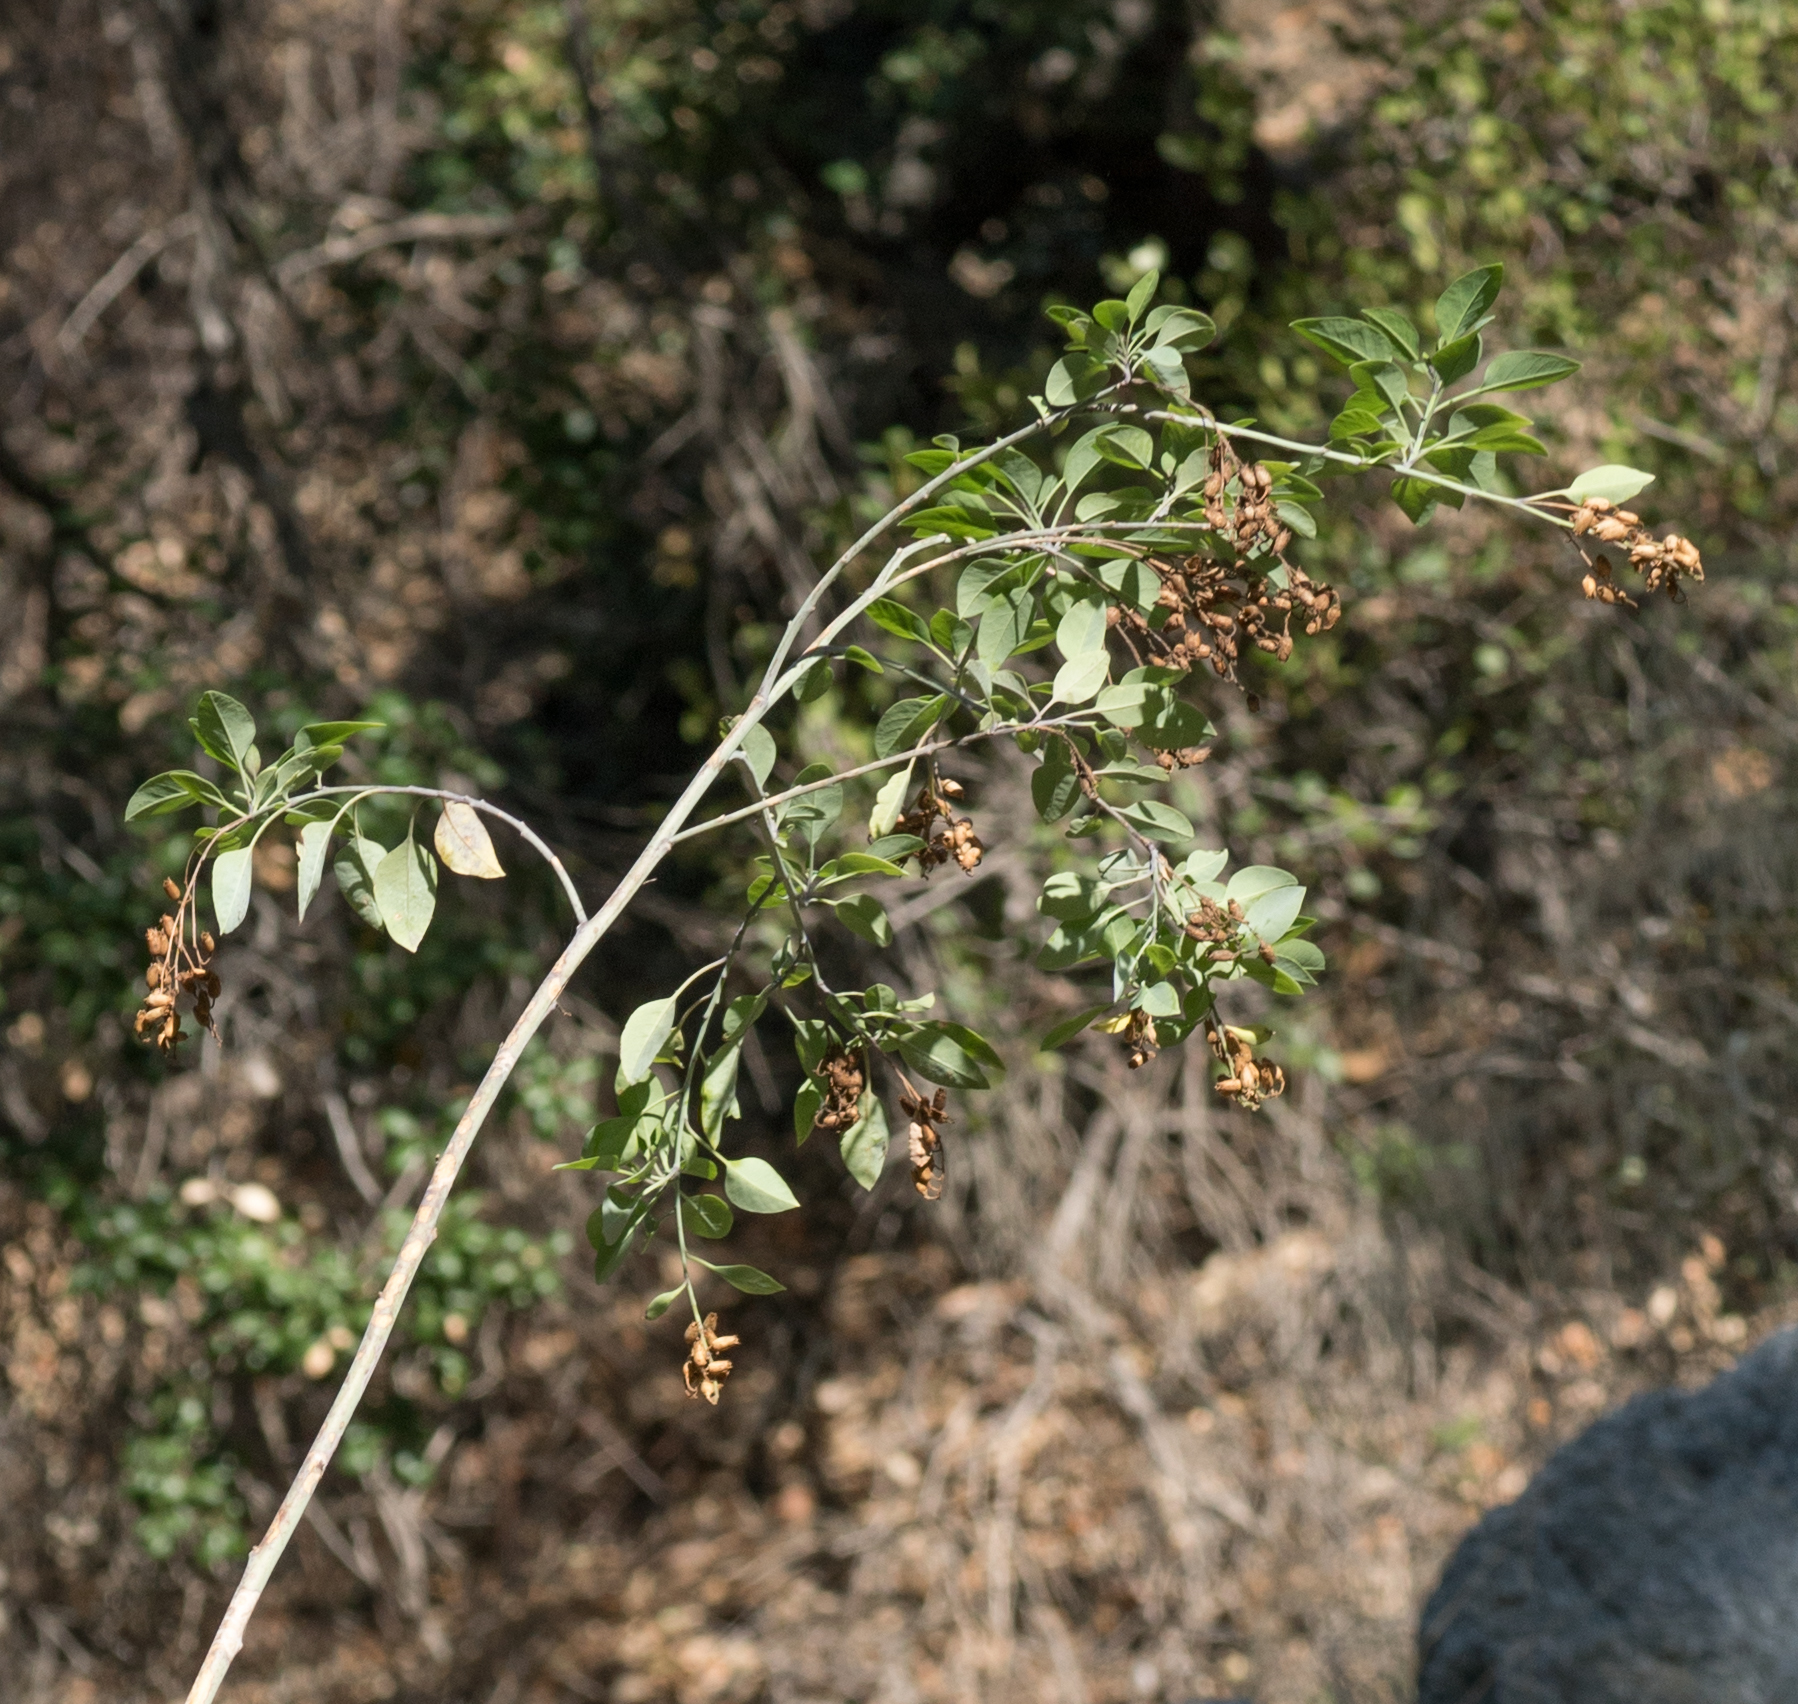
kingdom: Plantae
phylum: Tracheophyta
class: Magnoliopsida
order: Solanales
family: Solanaceae
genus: Nicotiana
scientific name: Nicotiana glauca
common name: Tree tobacco
